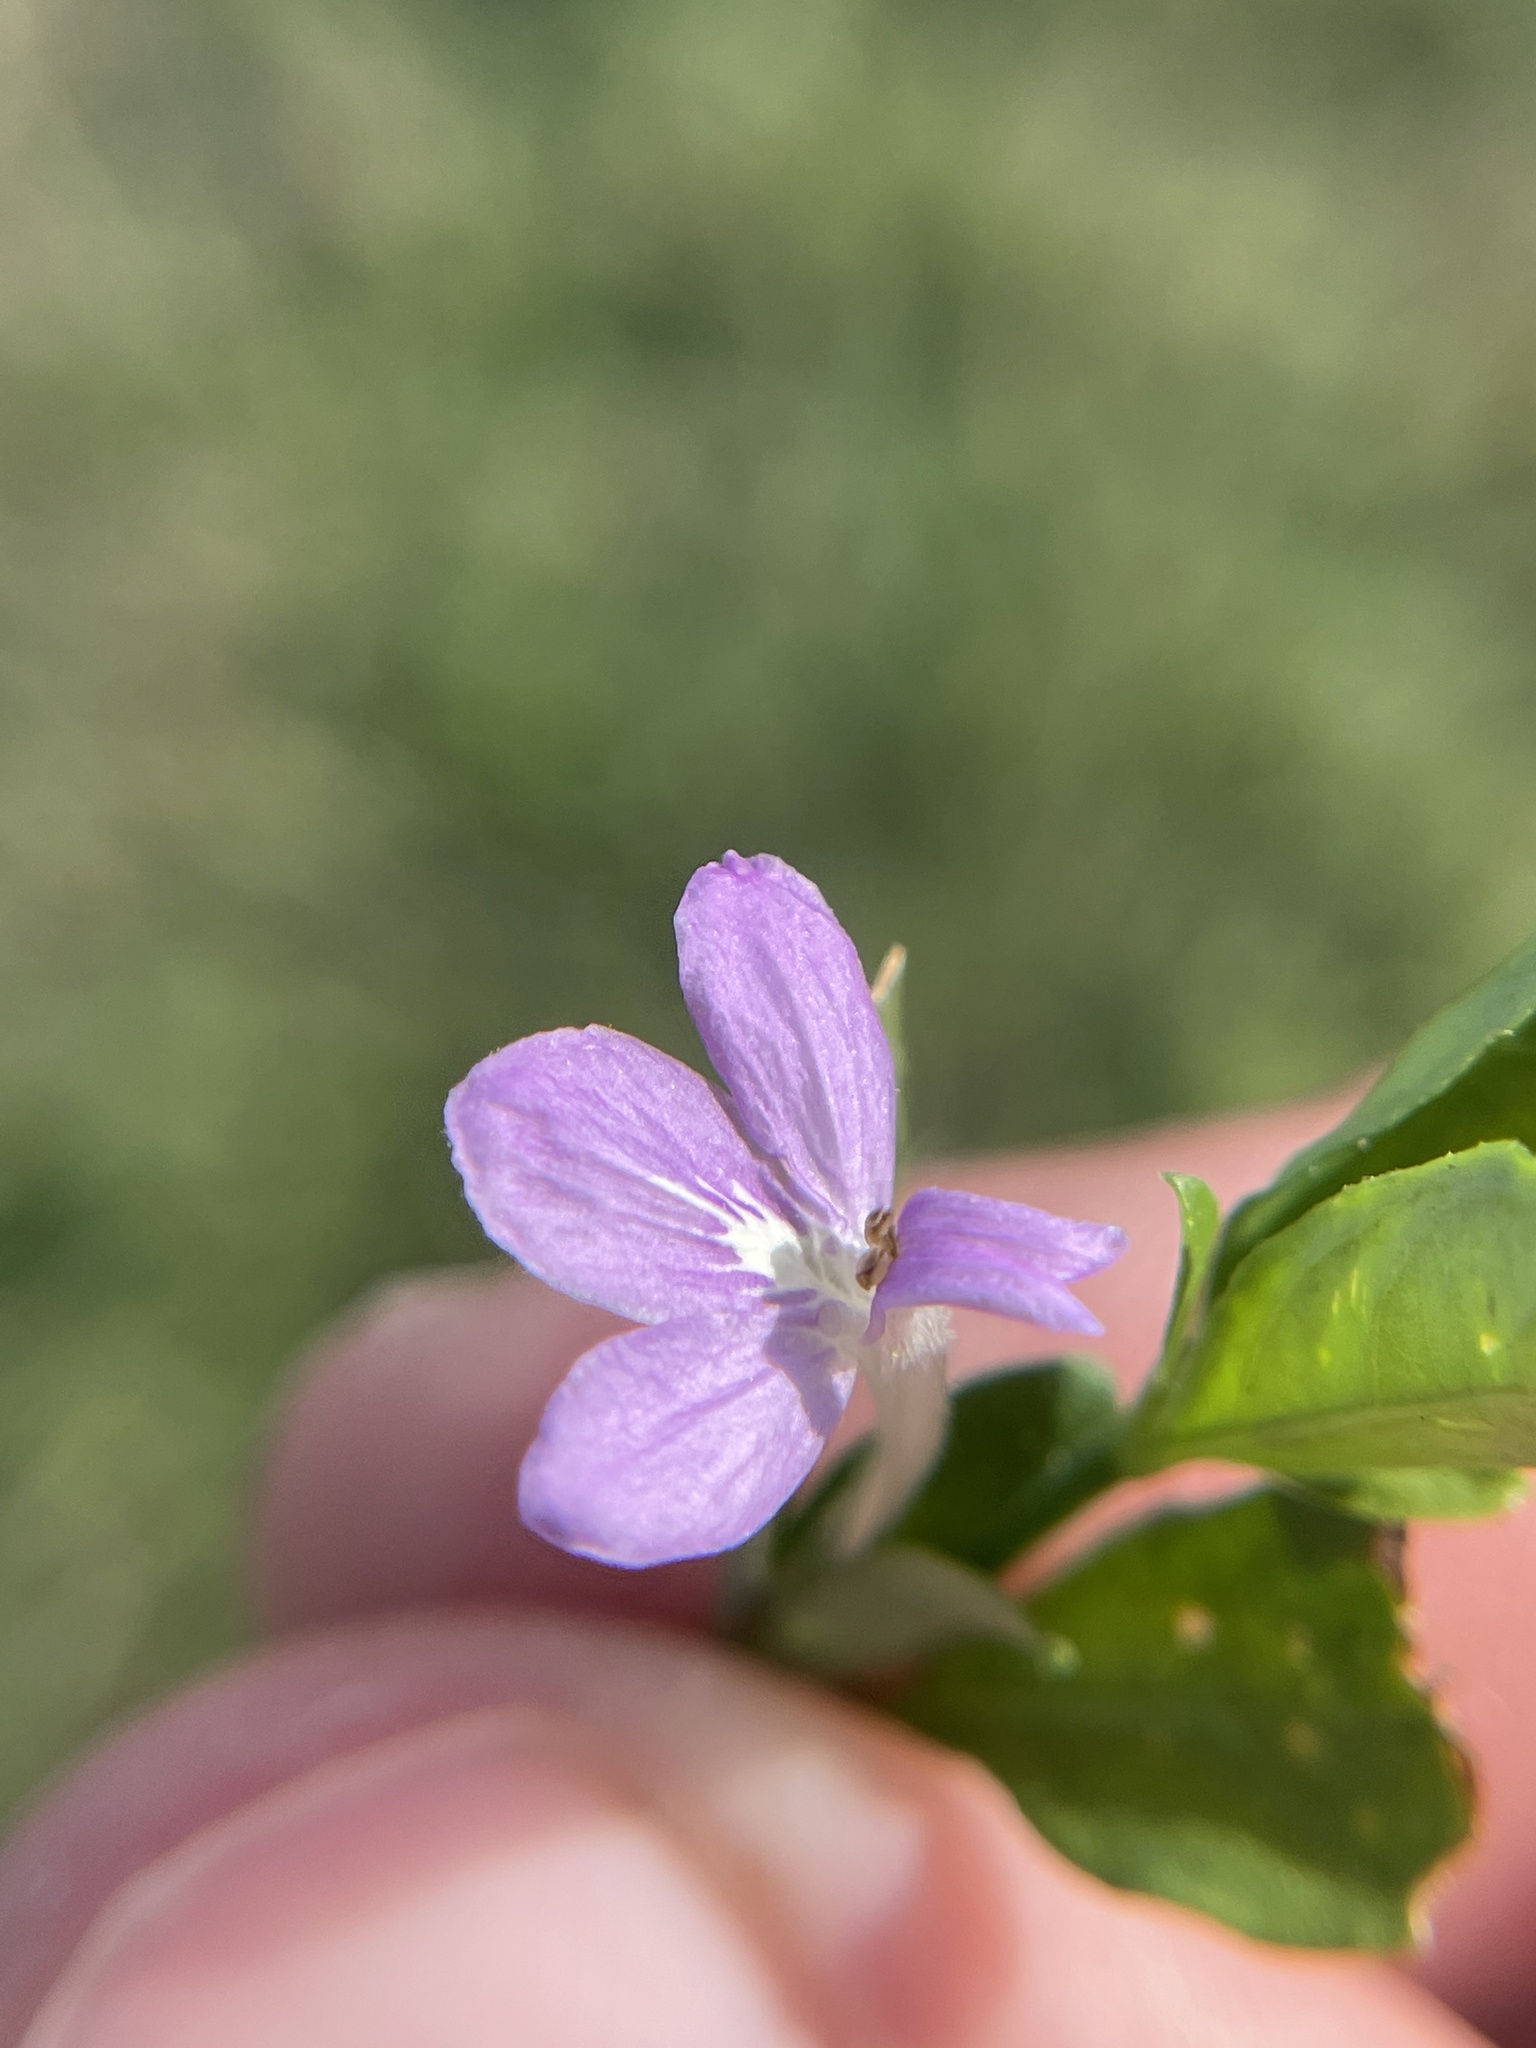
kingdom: Plantae
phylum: Tracheophyta
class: Magnoliopsida
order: Lamiales
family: Acanthaceae
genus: Justicia
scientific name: Justicia pilosella
